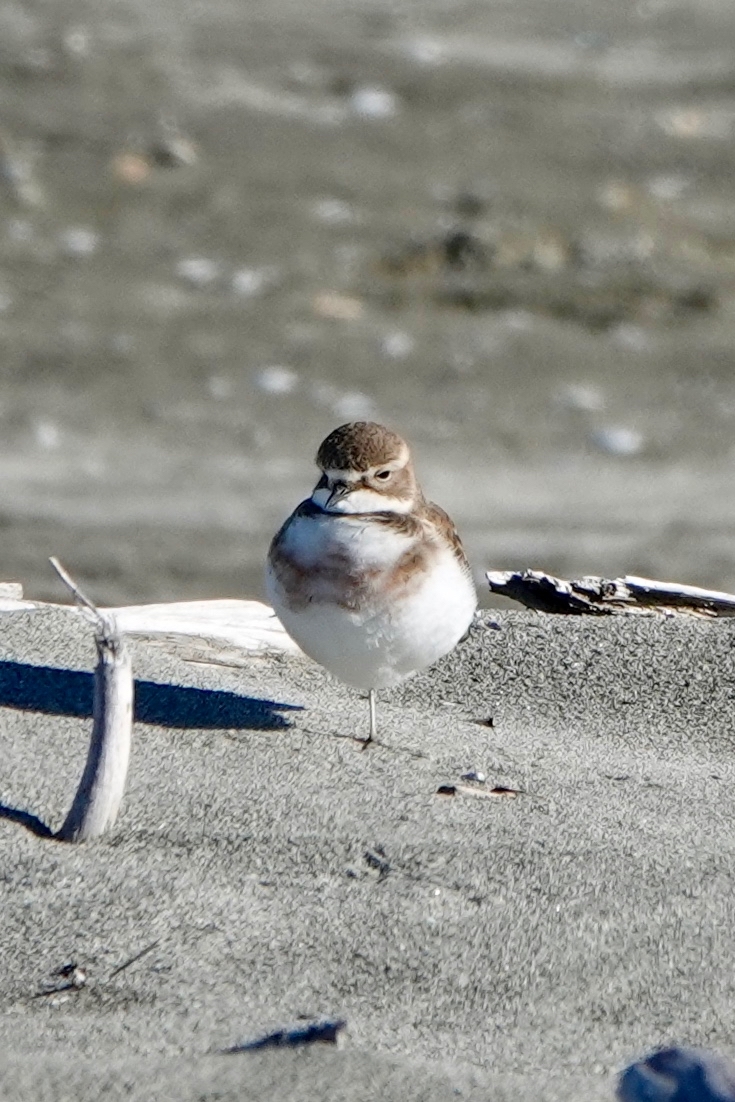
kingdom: Animalia
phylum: Chordata
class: Aves
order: Charadriiformes
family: Charadriidae
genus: Anarhynchus
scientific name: Anarhynchus
